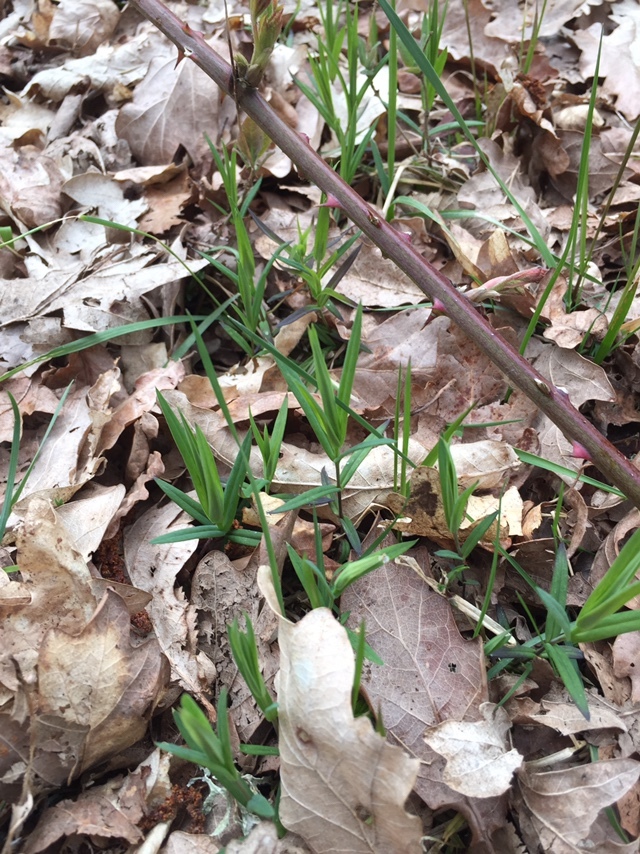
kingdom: Plantae
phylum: Tracheophyta
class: Magnoliopsida
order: Caryophyllales
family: Caryophyllaceae
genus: Rabelera
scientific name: Rabelera holostea
